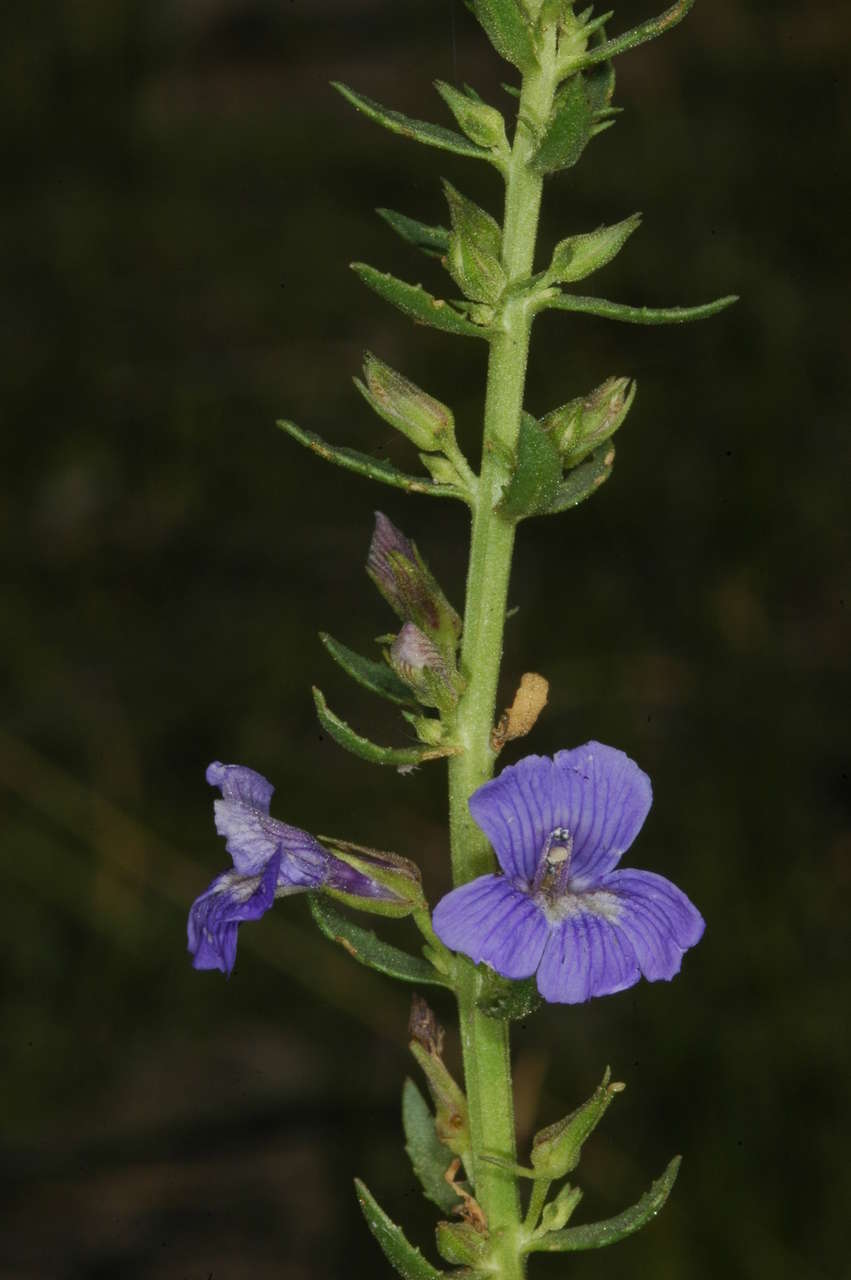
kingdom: Plantae
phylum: Tracheophyta
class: Magnoliopsida
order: Lamiales
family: Plantaginaceae
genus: Stemodia
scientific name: Stemodia florulenta
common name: Bluerod
